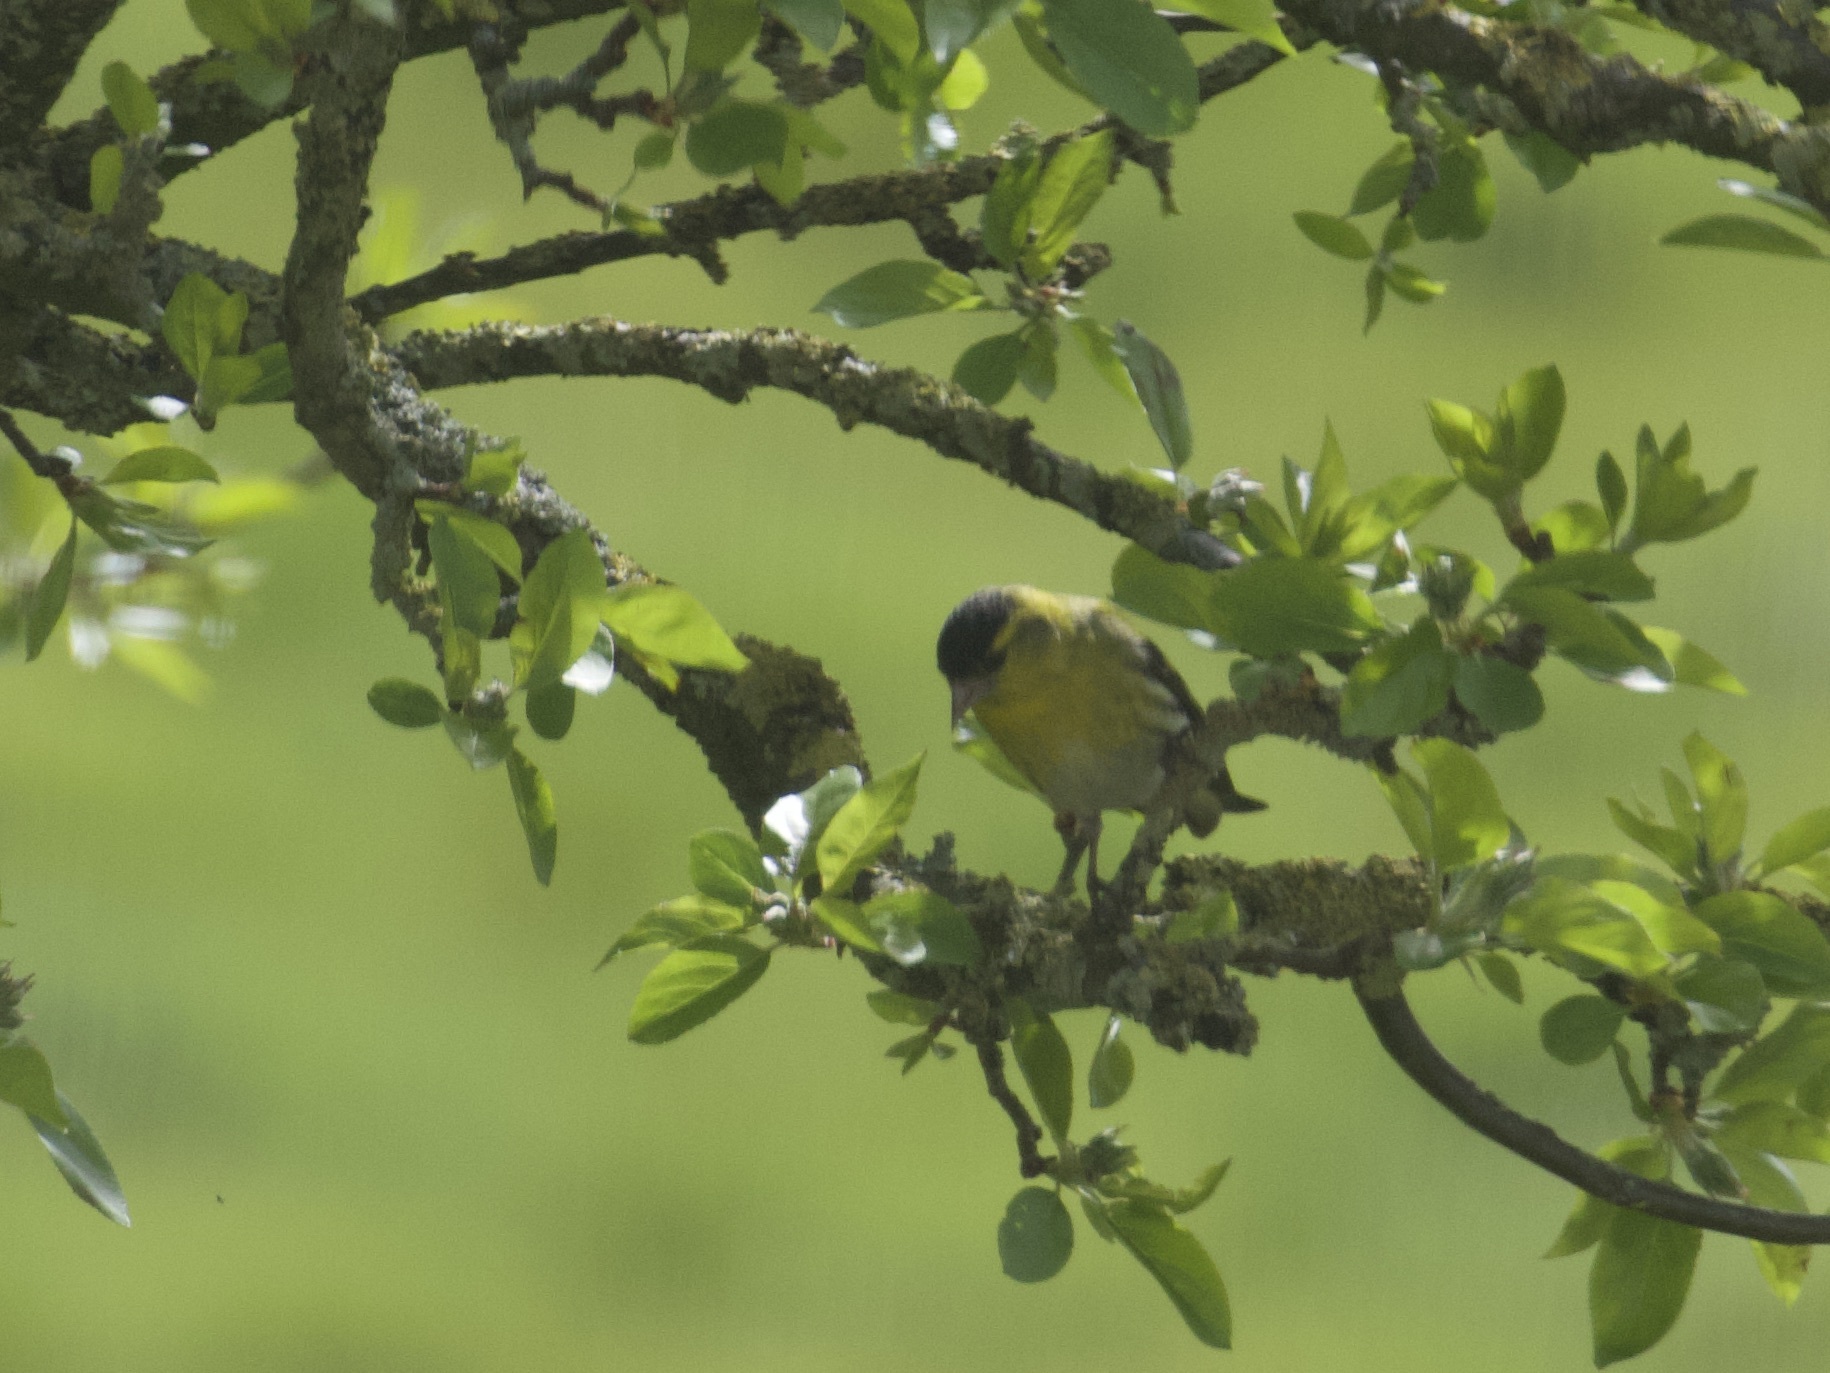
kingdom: Animalia
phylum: Chordata
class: Aves
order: Passeriformes
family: Fringillidae
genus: Spinus
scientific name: Spinus spinus
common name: Eurasian siskin
